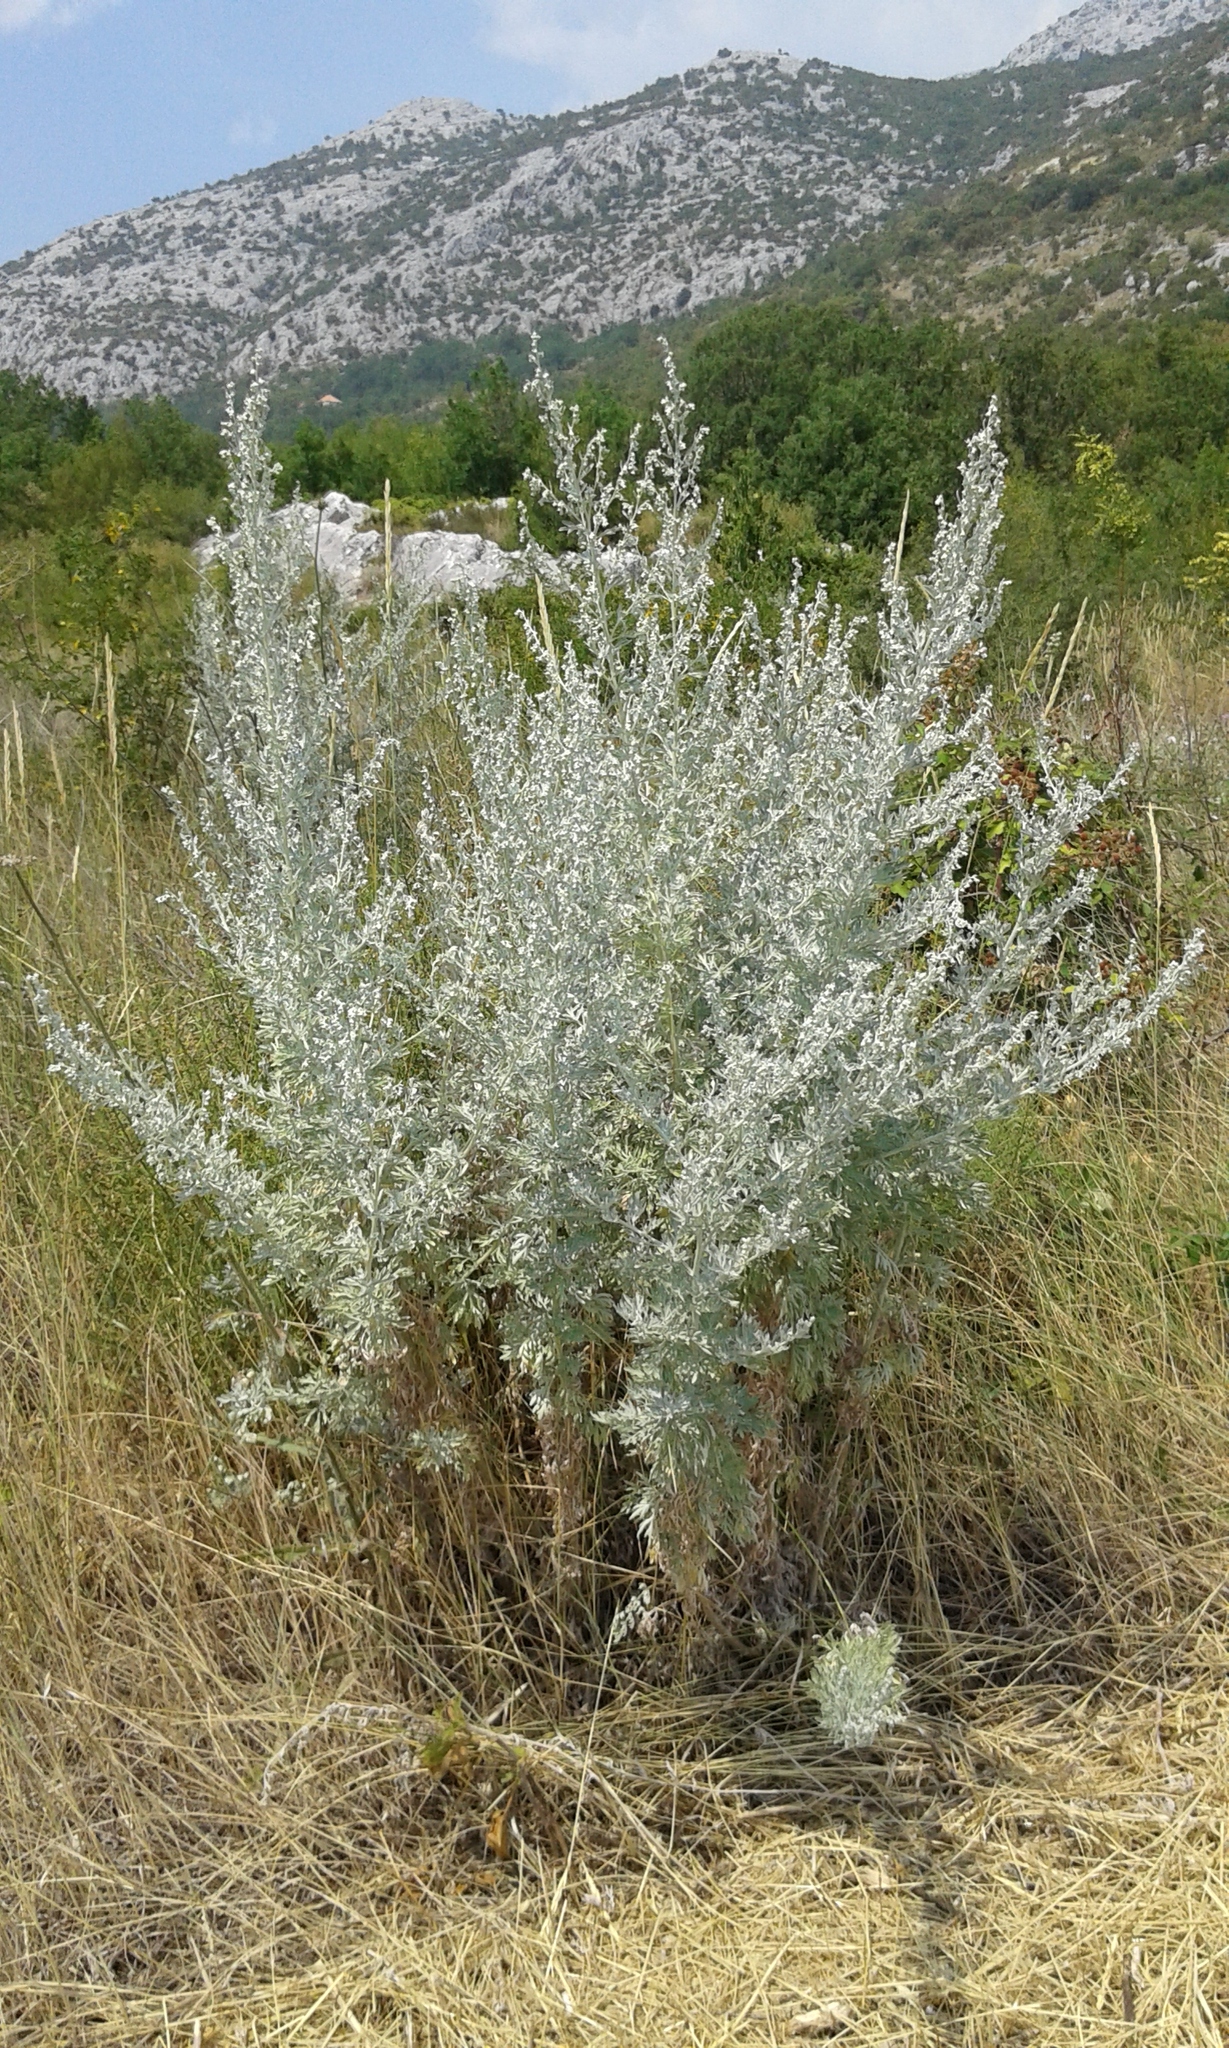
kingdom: Plantae
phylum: Tracheophyta
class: Magnoliopsida
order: Asterales
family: Asteraceae
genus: Artemisia
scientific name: Artemisia absinthium
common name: Wormwood
